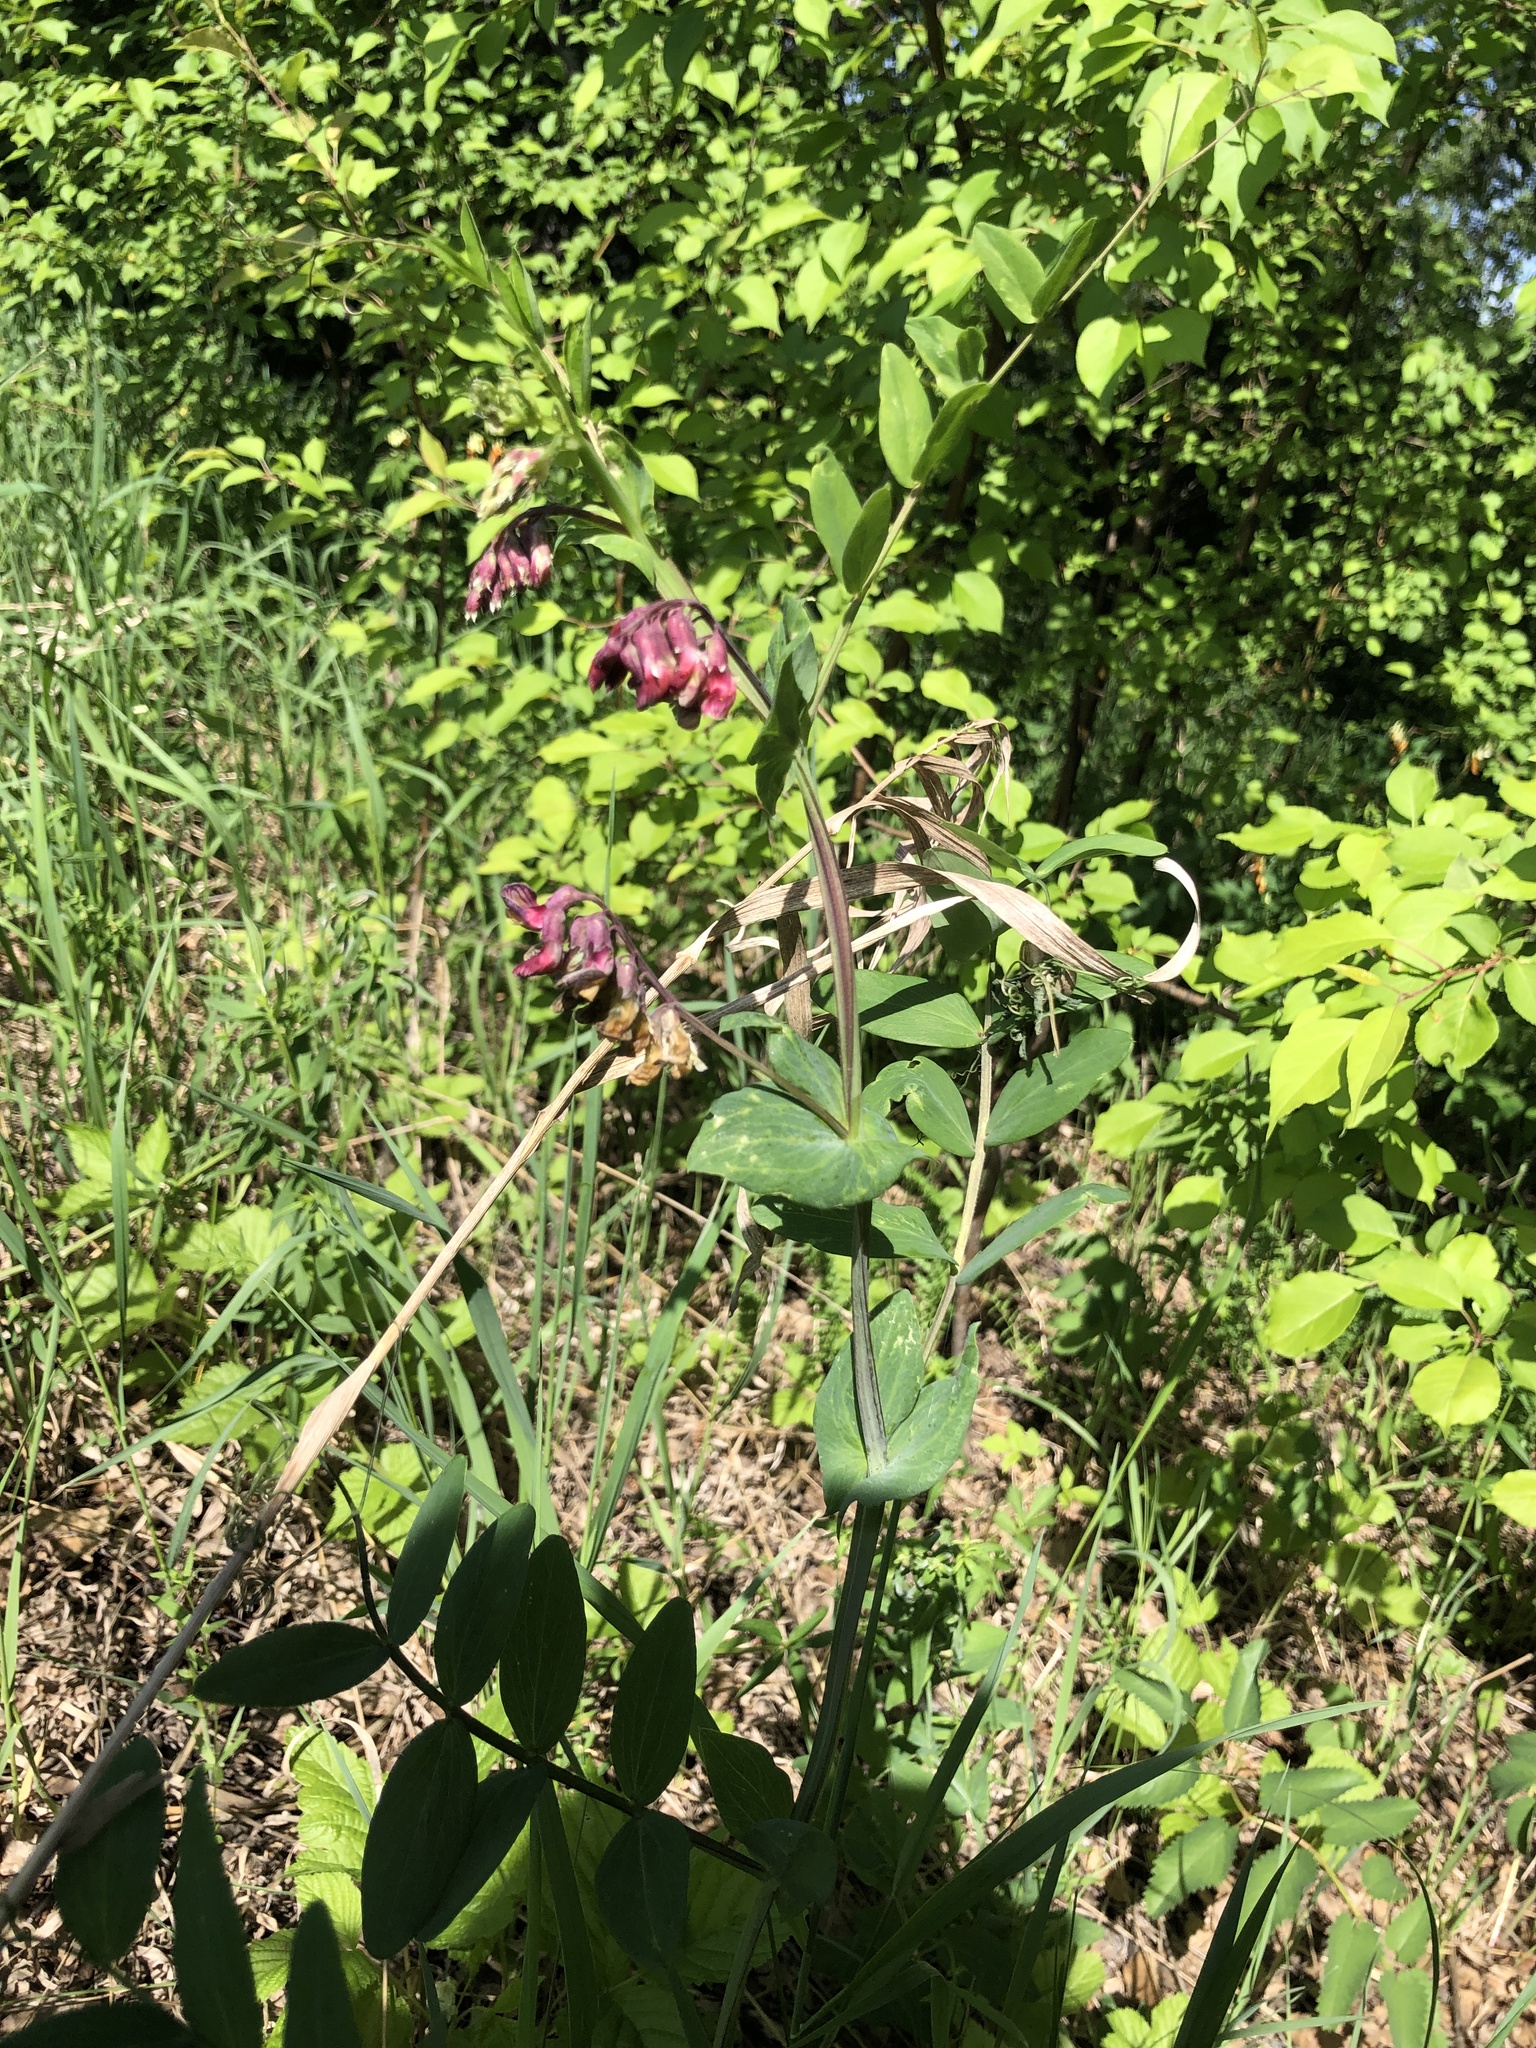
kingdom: Plantae
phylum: Tracheophyta
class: Magnoliopsida
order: Fabales
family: Fabaceae
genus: Lathyrus
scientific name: Lathyrus pisiformis
